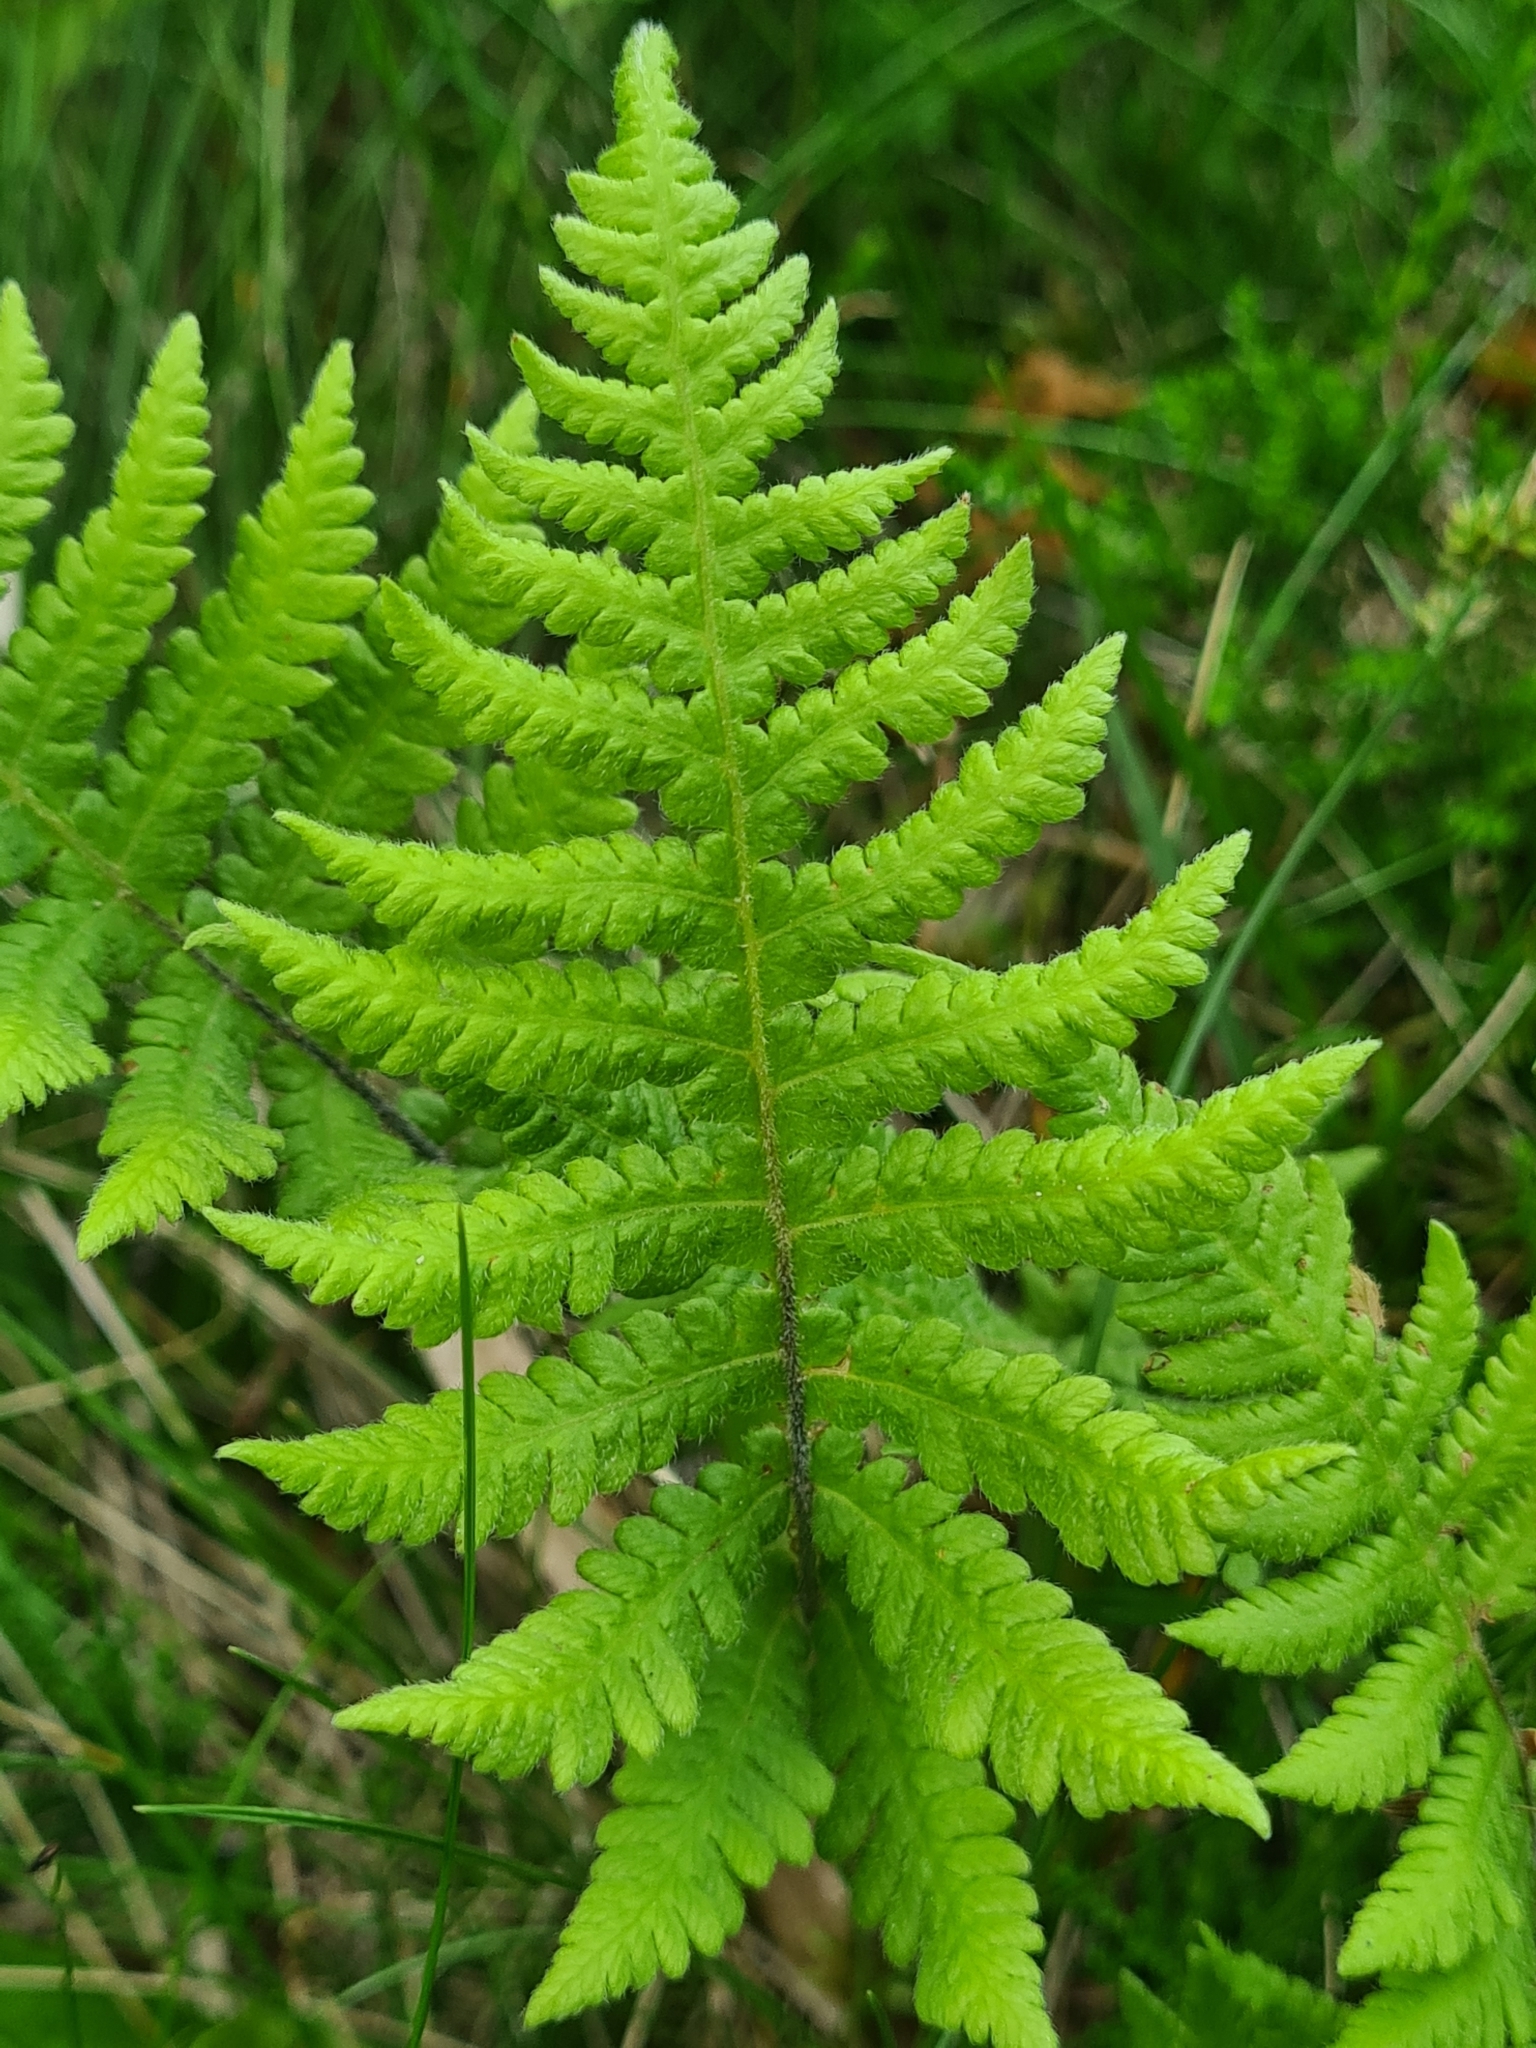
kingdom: Plantae
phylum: Tracheophyta
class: Polypodiopsida
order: Polypodiales
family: Thelypteridaceae
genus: Phegopteris
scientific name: Phegopteris connectilis
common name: Beech fern
